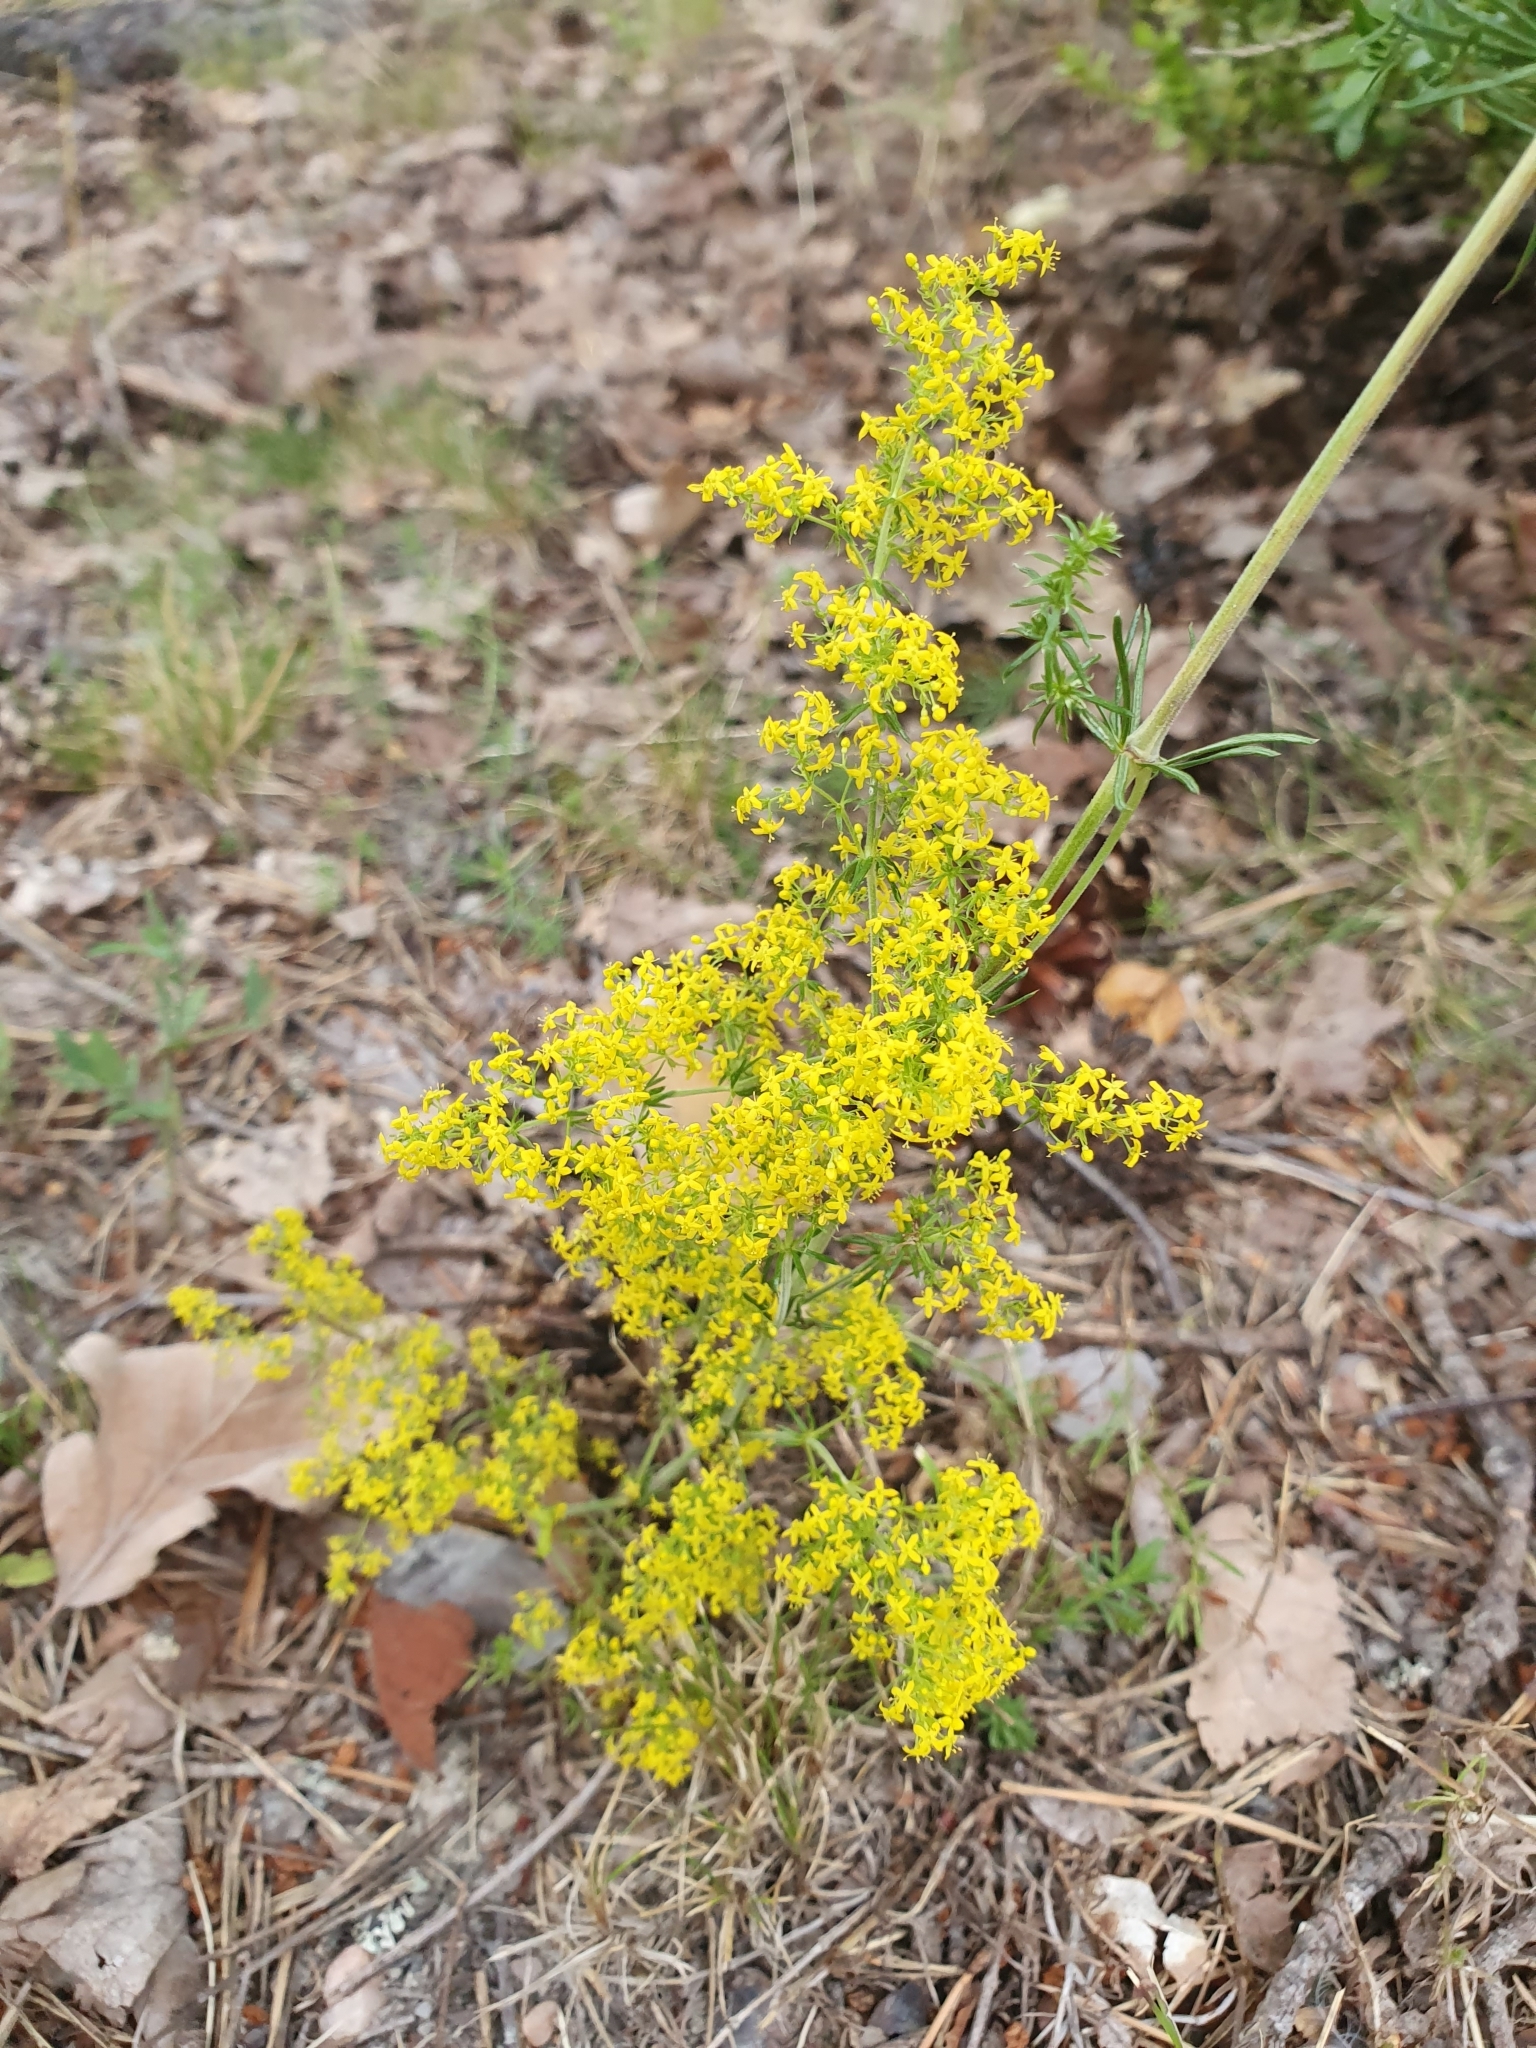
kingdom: Plantae
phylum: Tracheophyta
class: Magnoliopsida
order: Gentianales
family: Rubiaceae
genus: Galium
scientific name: Galium verum
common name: Lady's bedstraw
